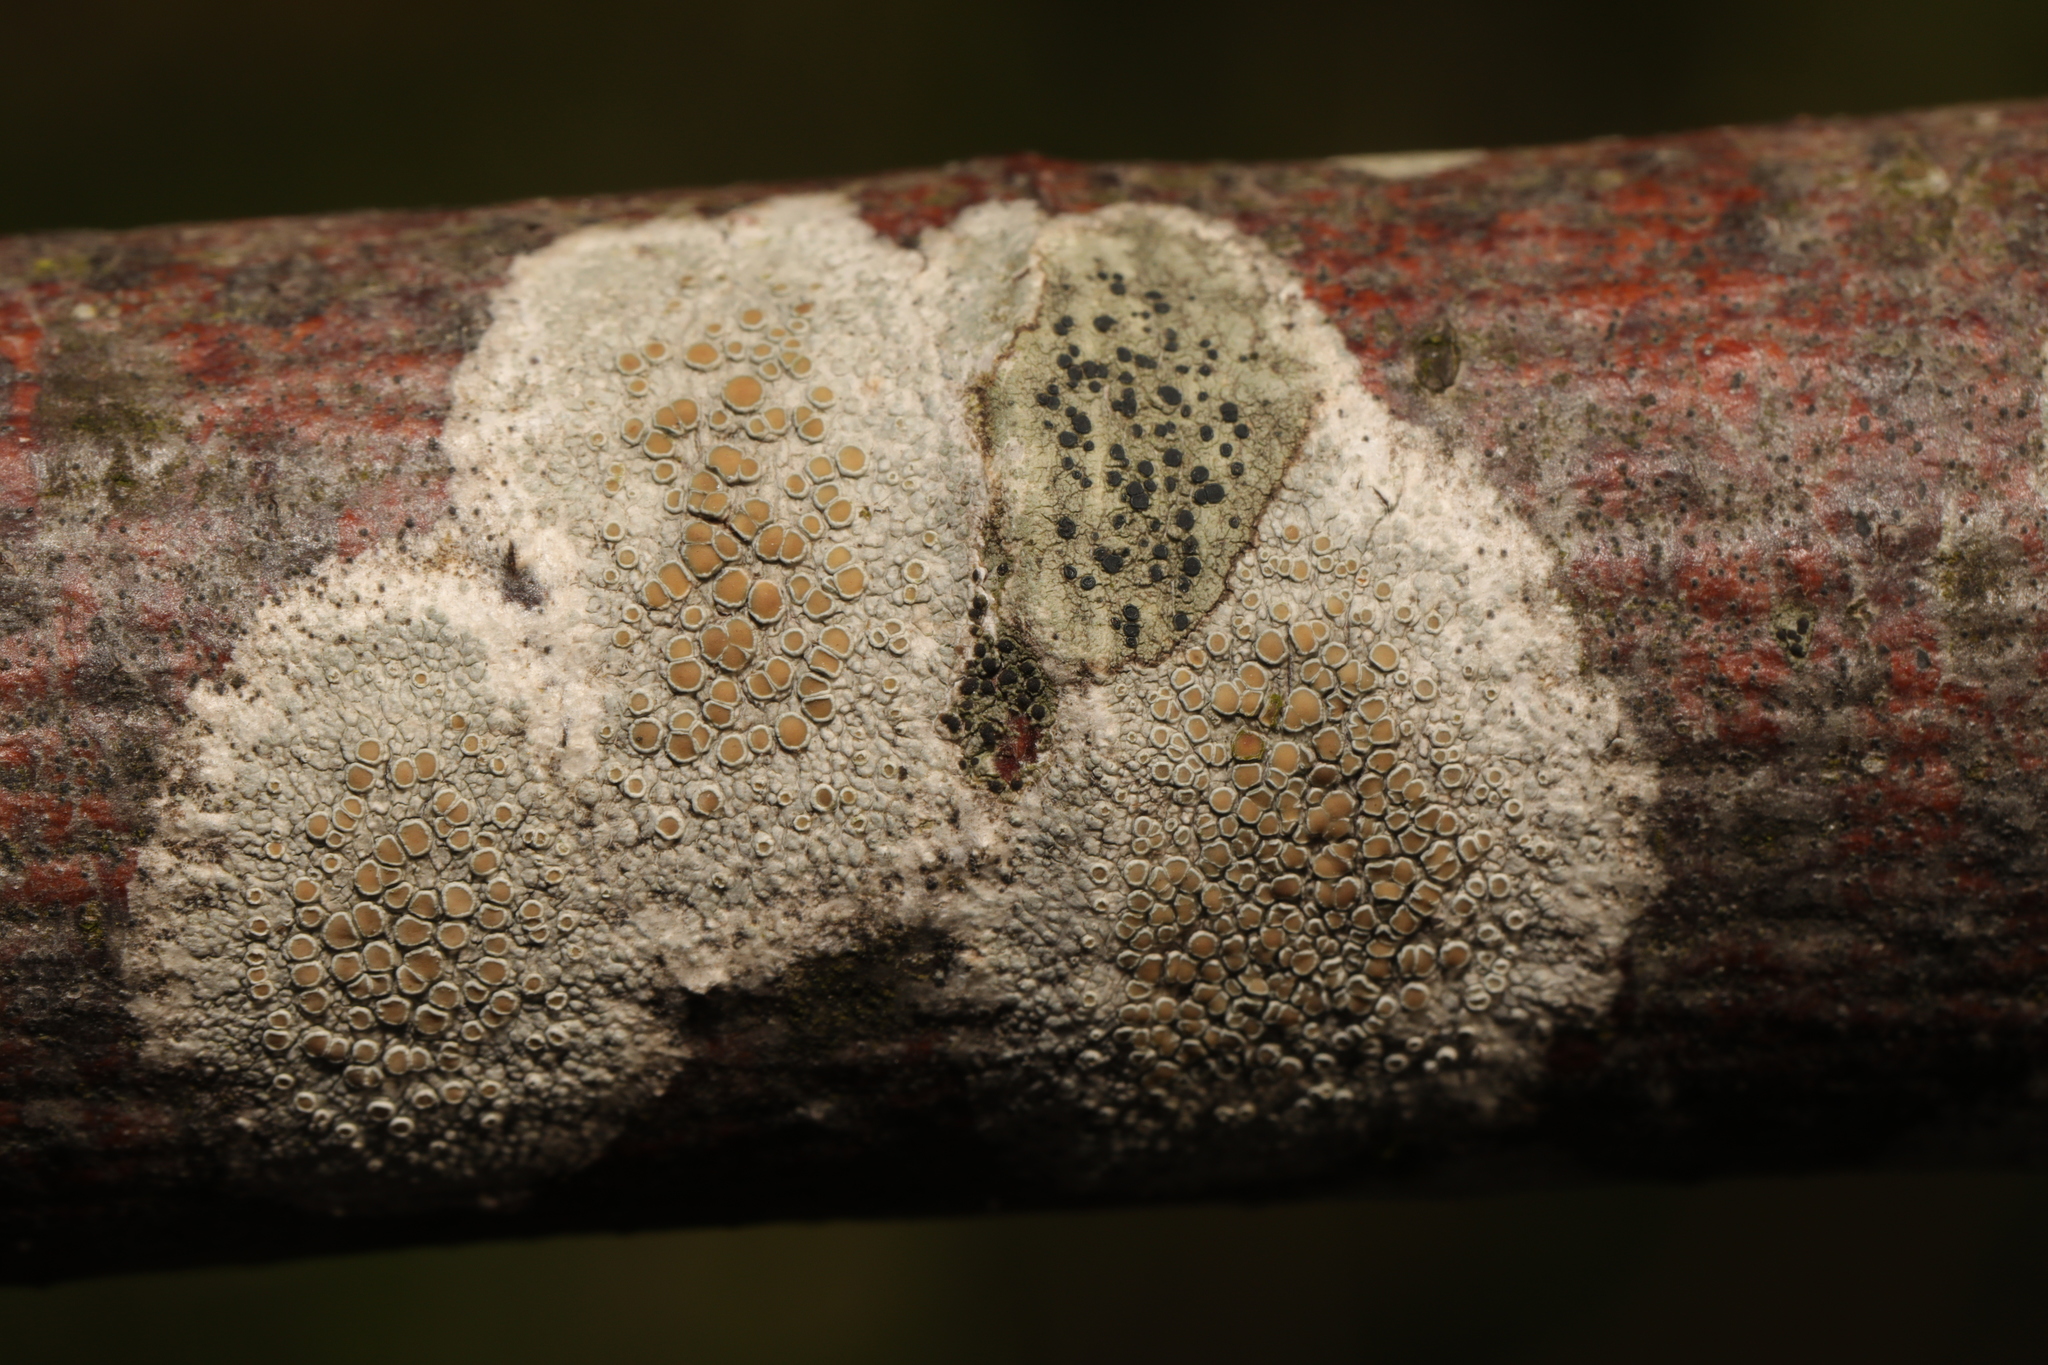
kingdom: Fungi
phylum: Ascomycota
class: Lecanoromycetes
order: Lecanorales
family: Lecanoraceae
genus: Lecidella
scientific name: Lecidella elaeochroma
